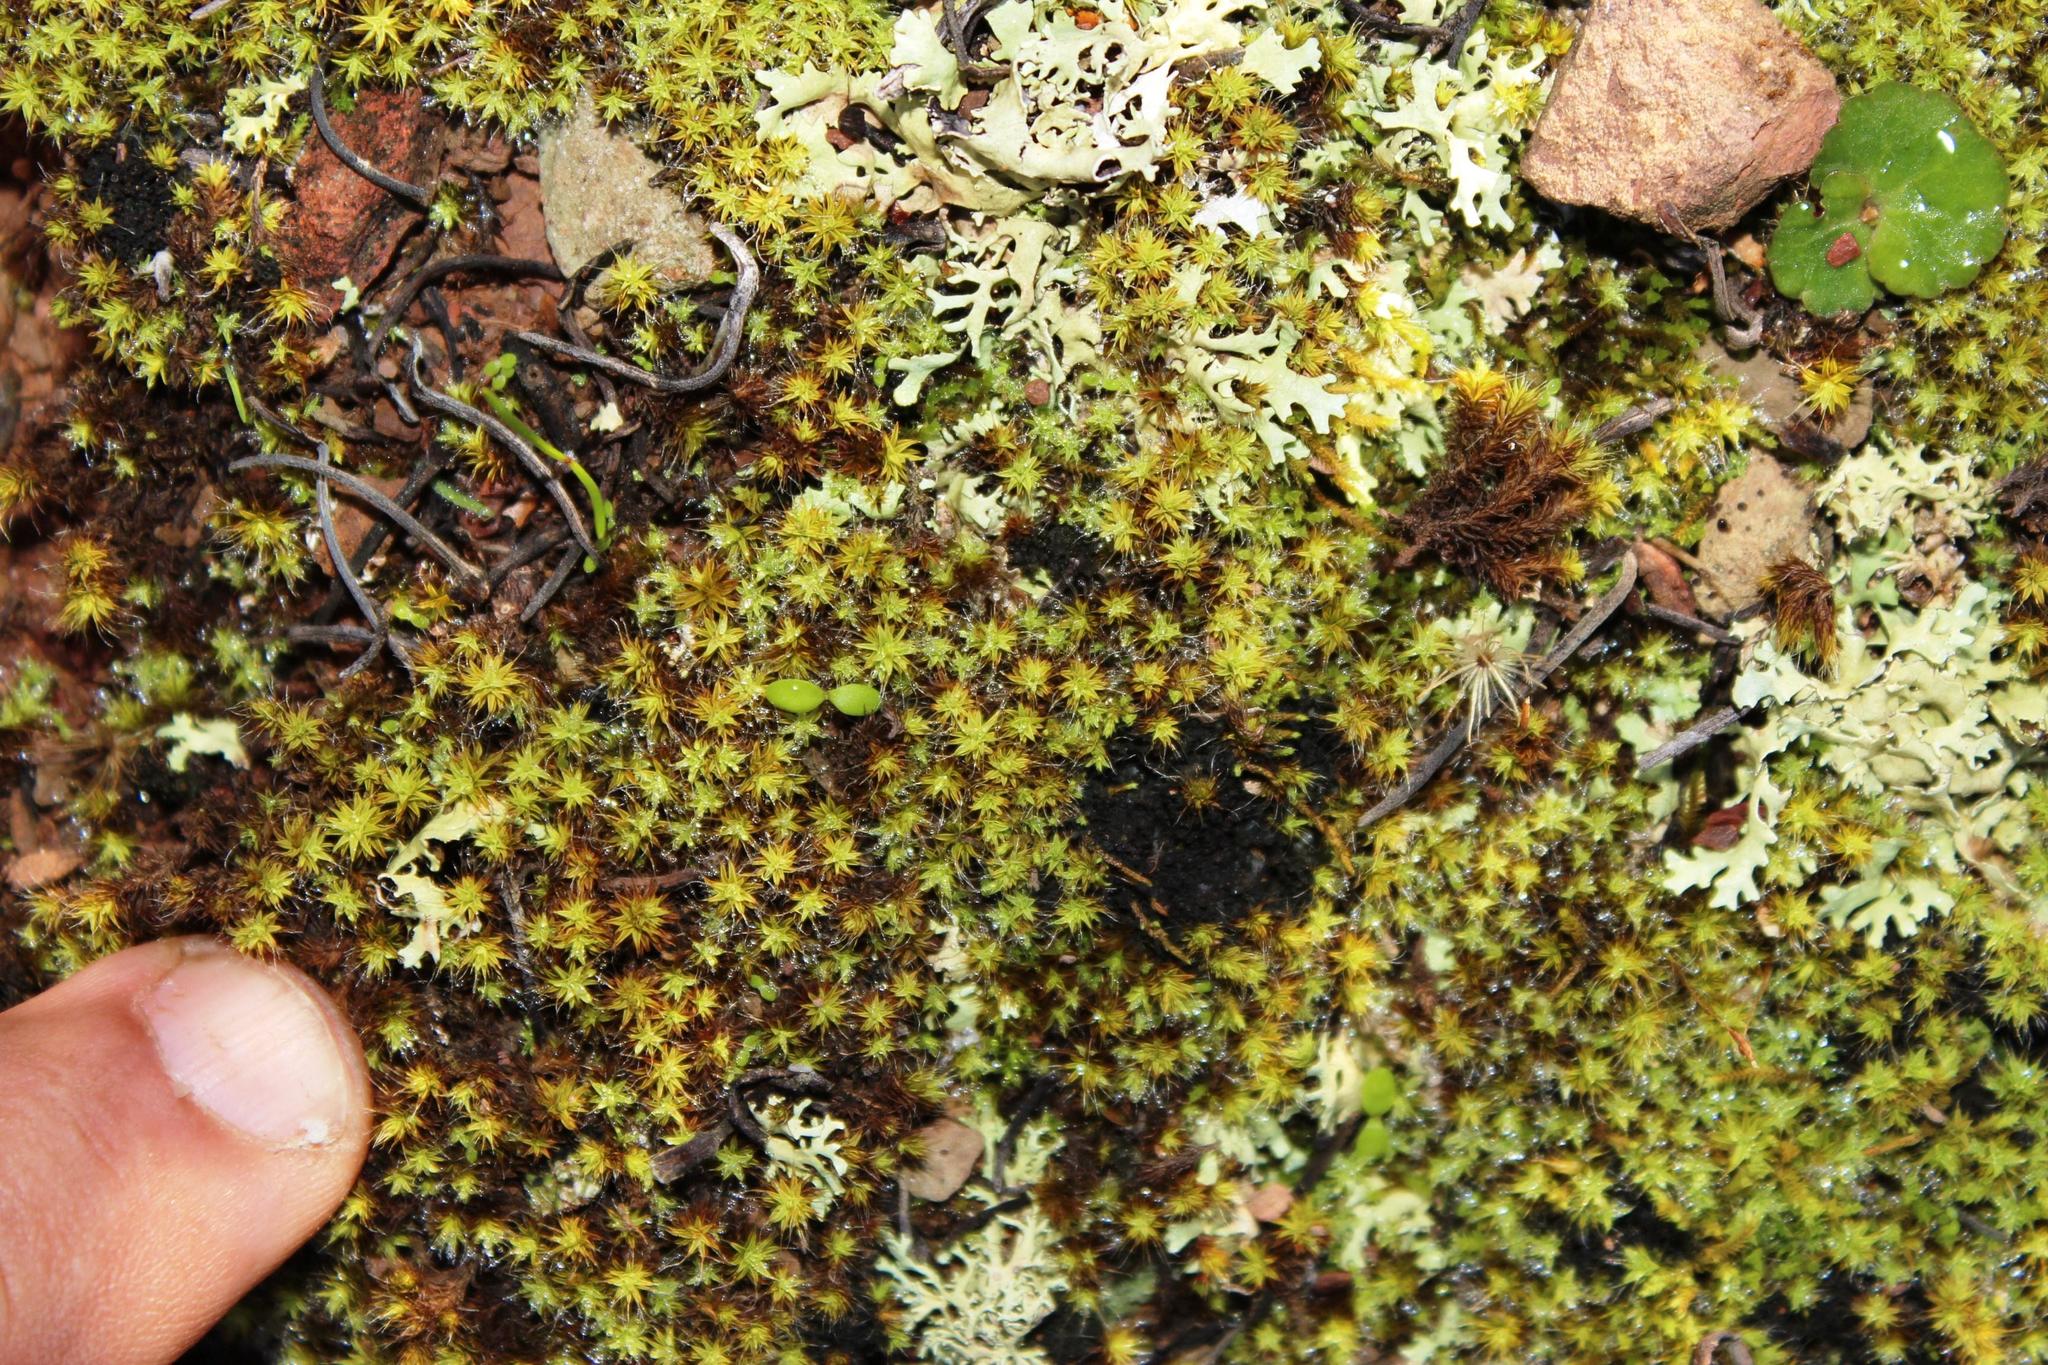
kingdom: Plantae
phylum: Bryophyta
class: Bryopsida
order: Pottiales
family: Pottiaceae
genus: Pseudocrossidium
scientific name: Pseudocrossidium crinitum
